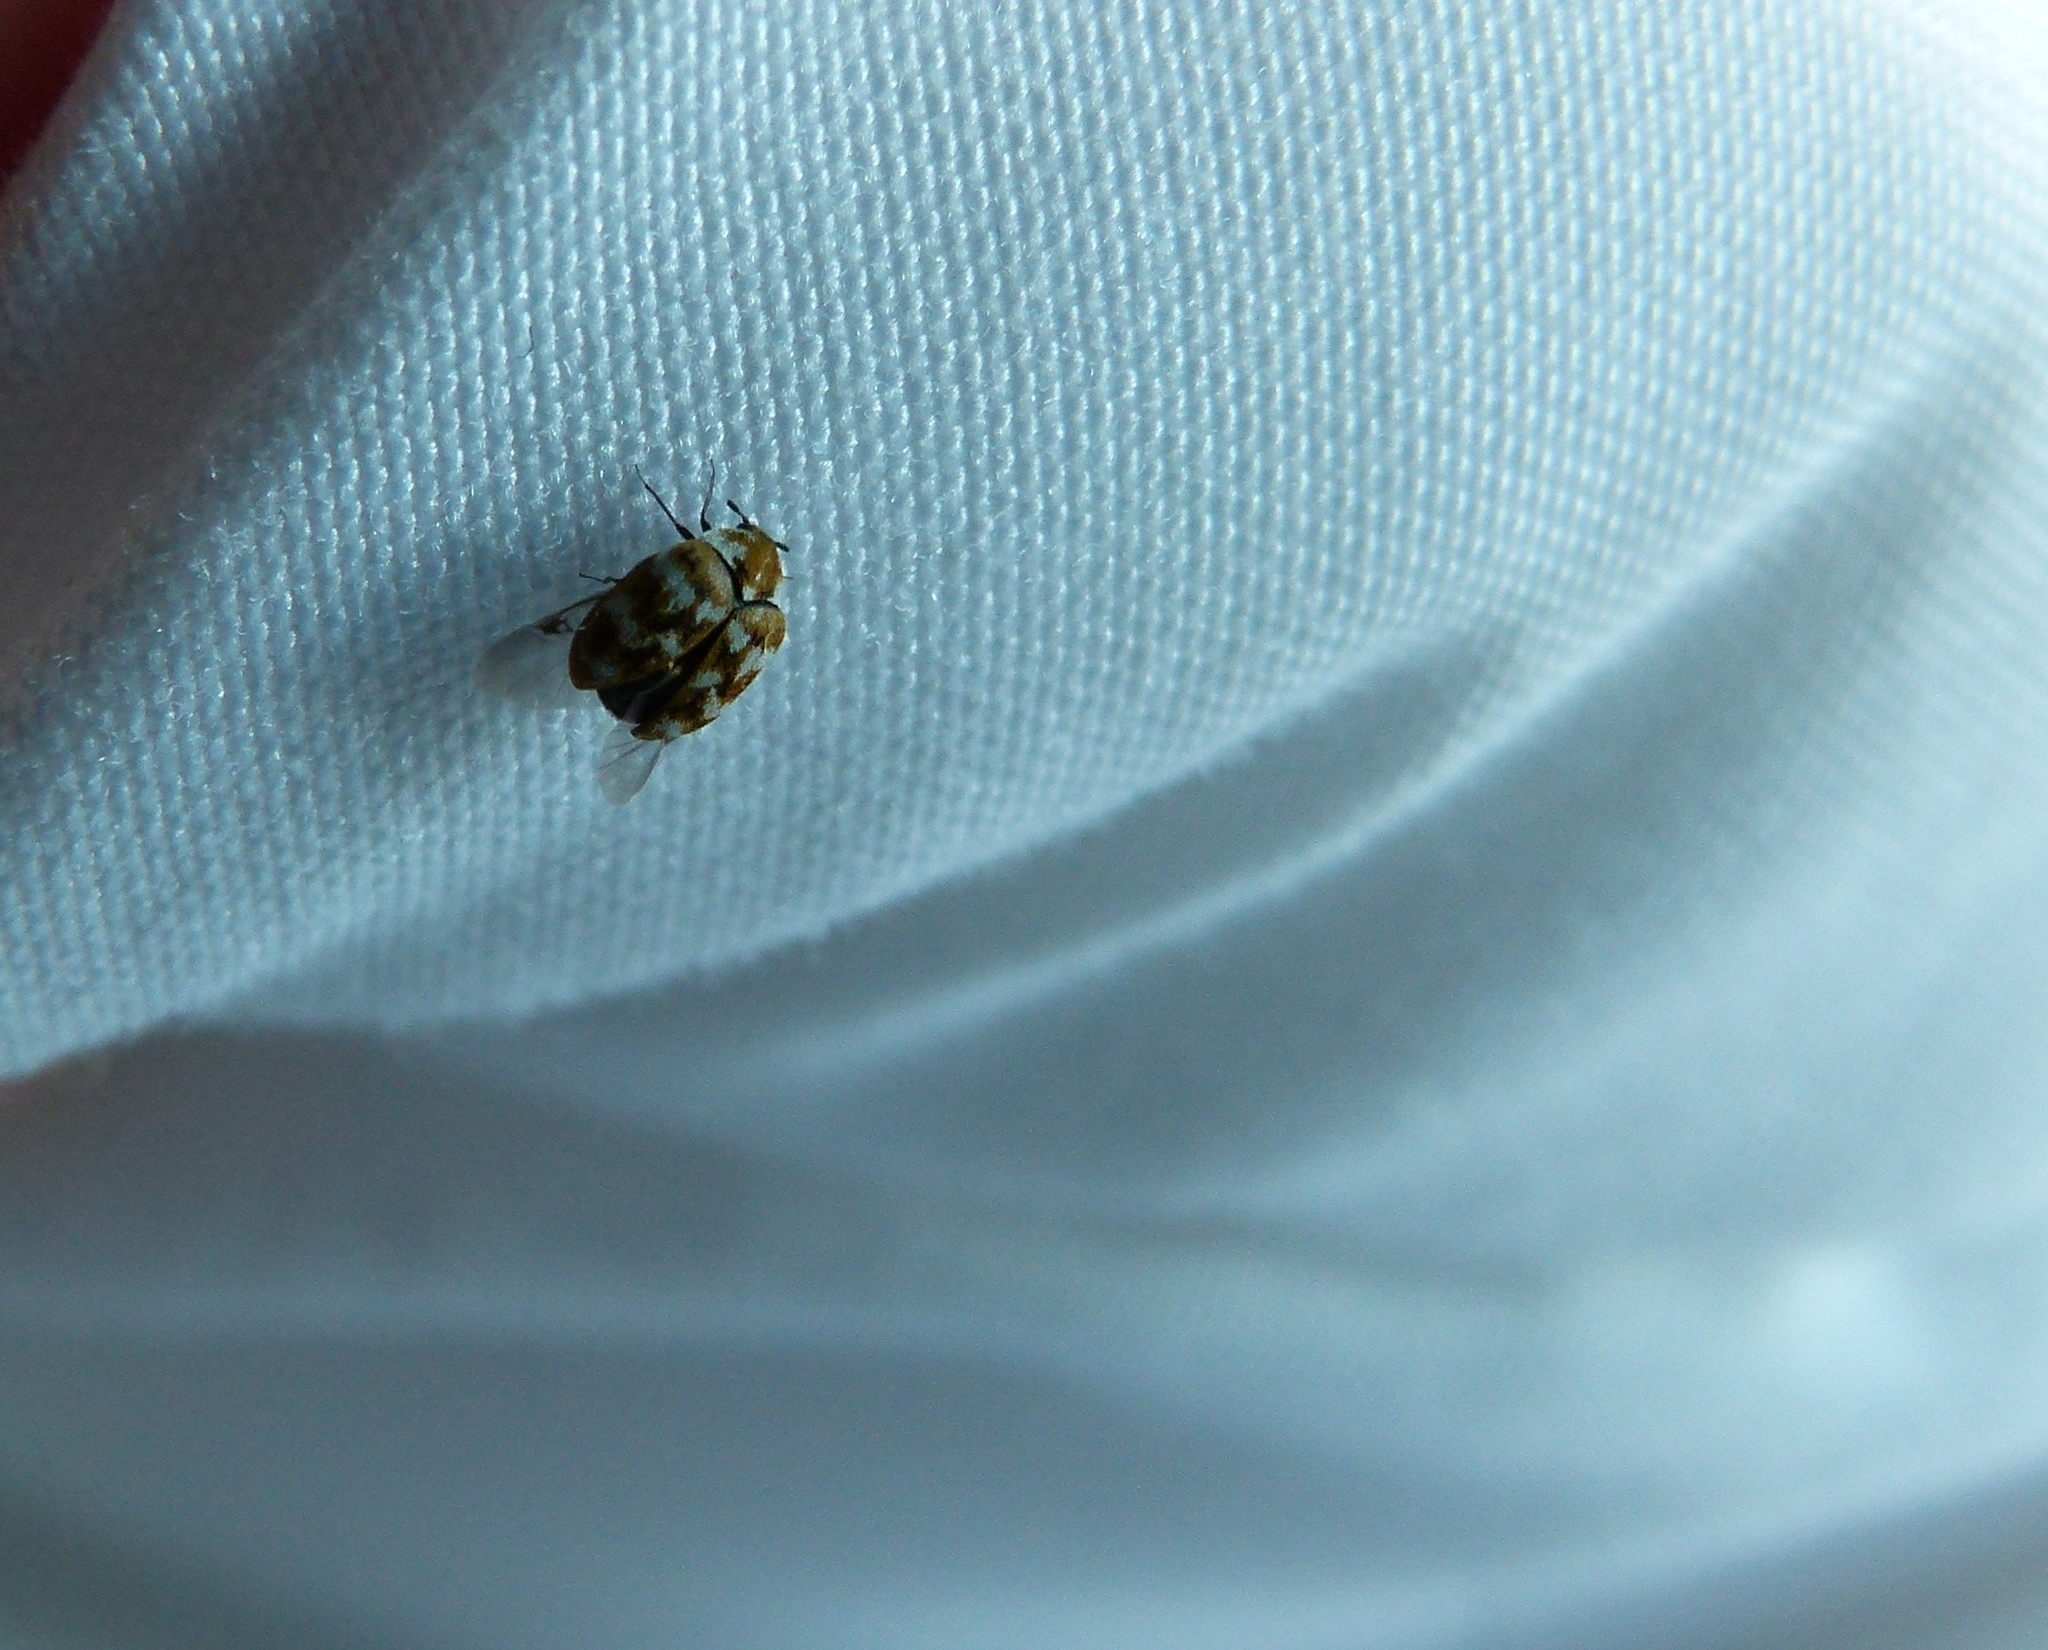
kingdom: Animalia
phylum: Arthropoda
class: Insecta
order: Coleoptera
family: Dermestidae
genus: Anthrenus
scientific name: Anthrenus verbasci
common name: Varied carpet beetle
